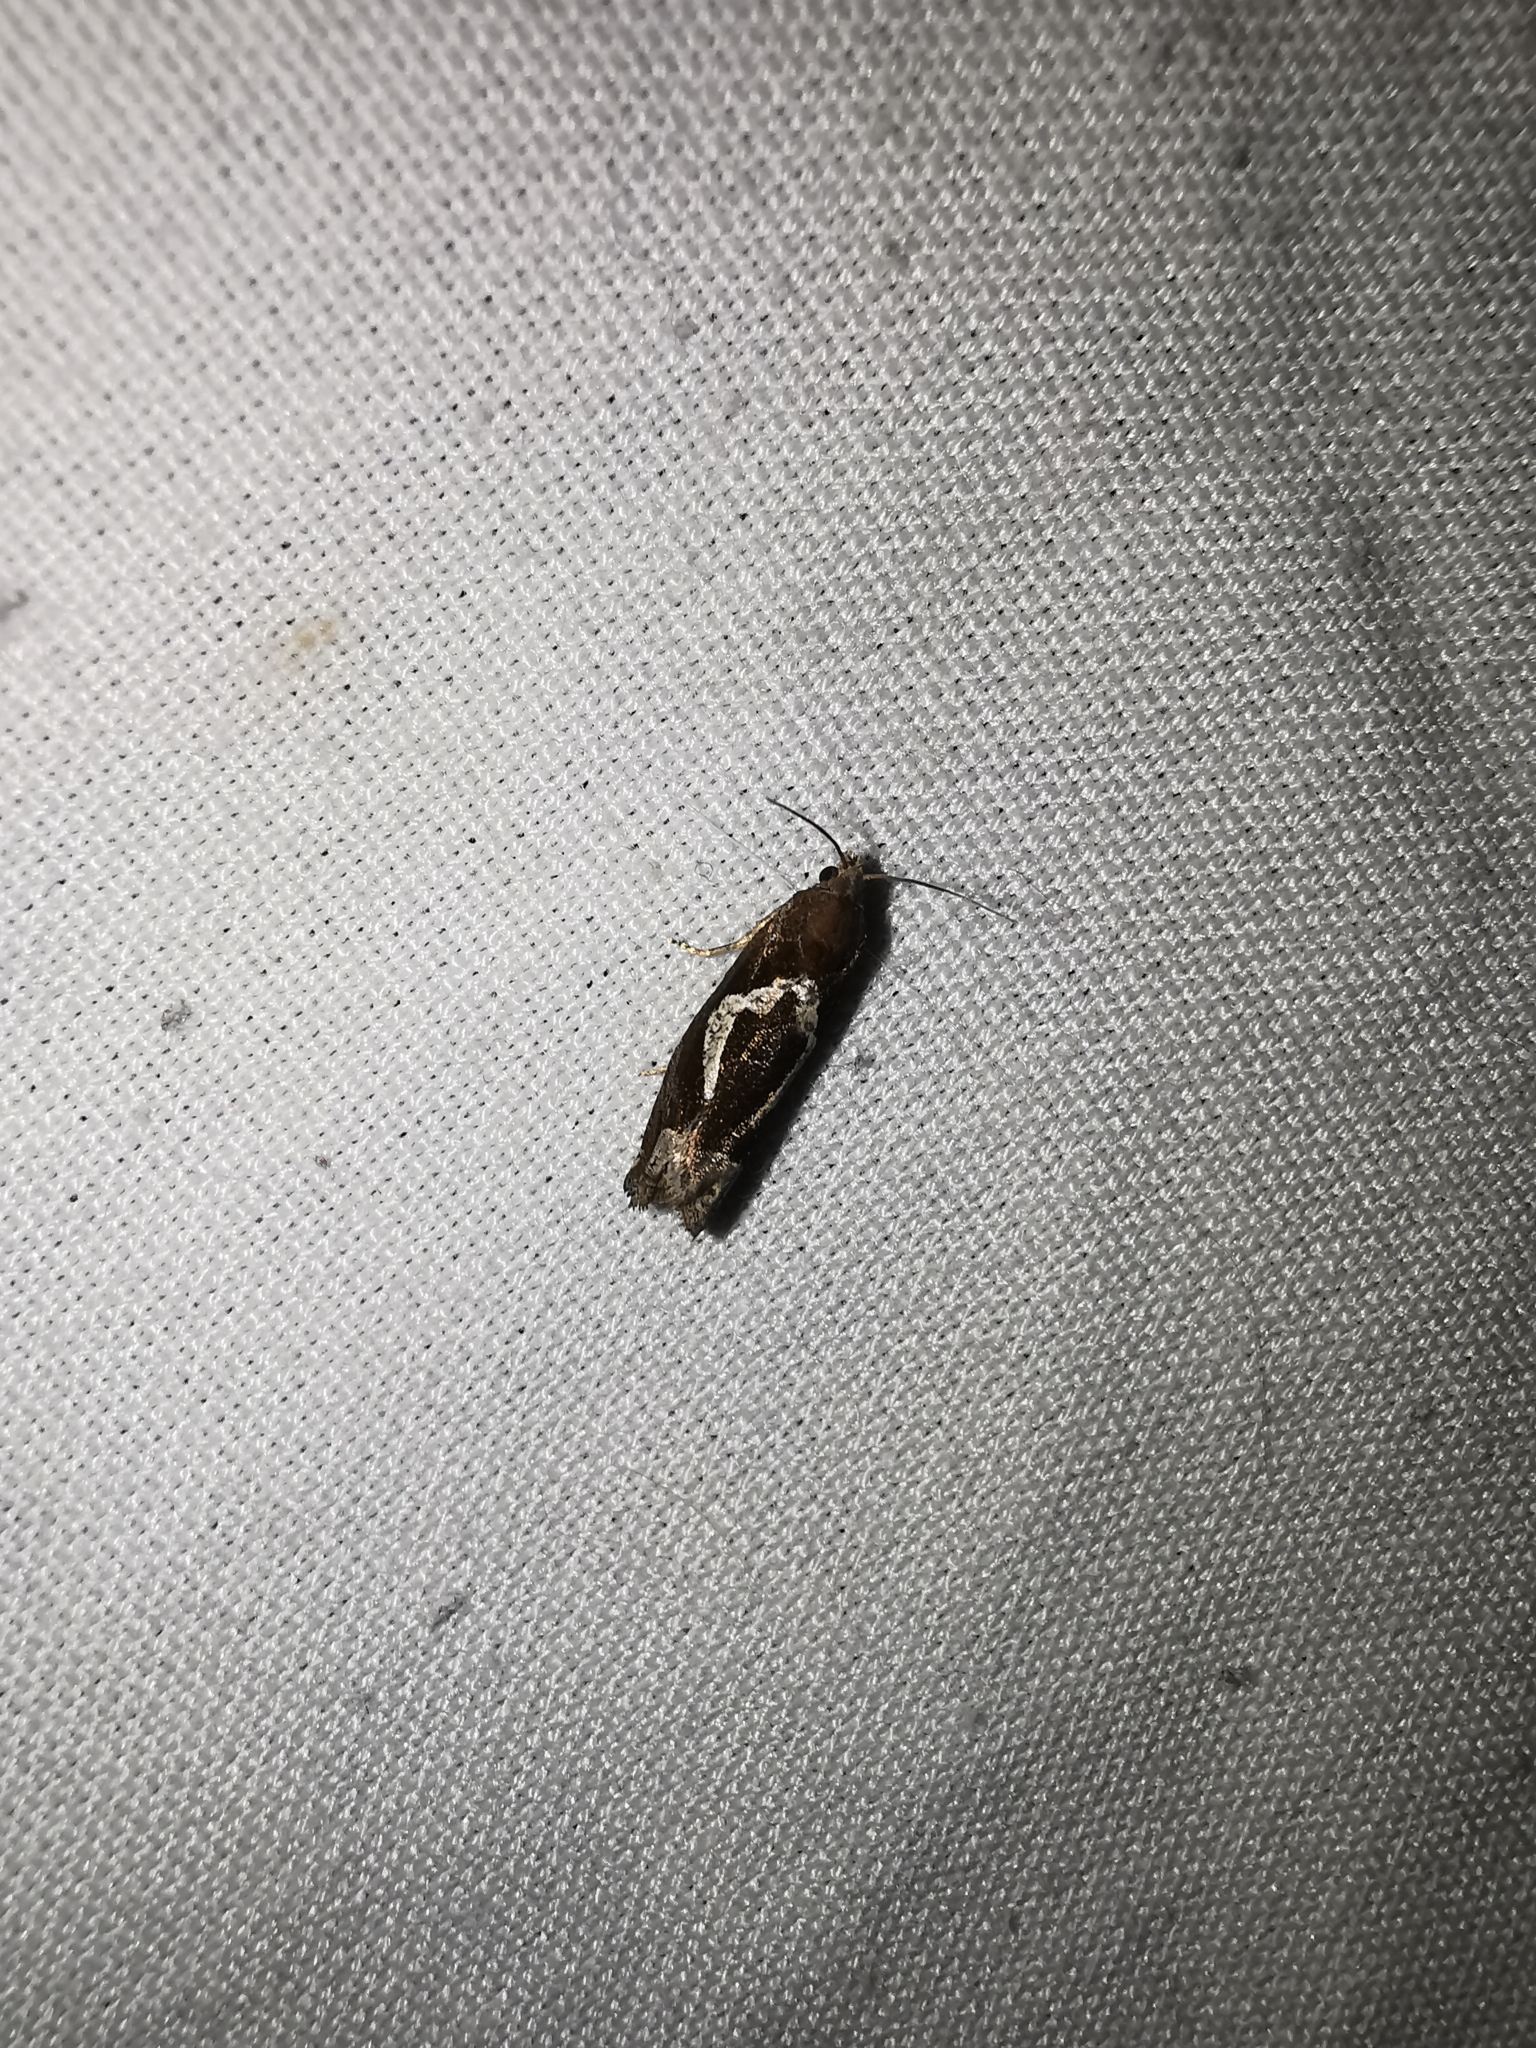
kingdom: Animalia
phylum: Arthropoda
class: Insecta
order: Lepidoptera
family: Tortricidae
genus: Epiblema
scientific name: Epiblema foenella
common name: White-foot bell
